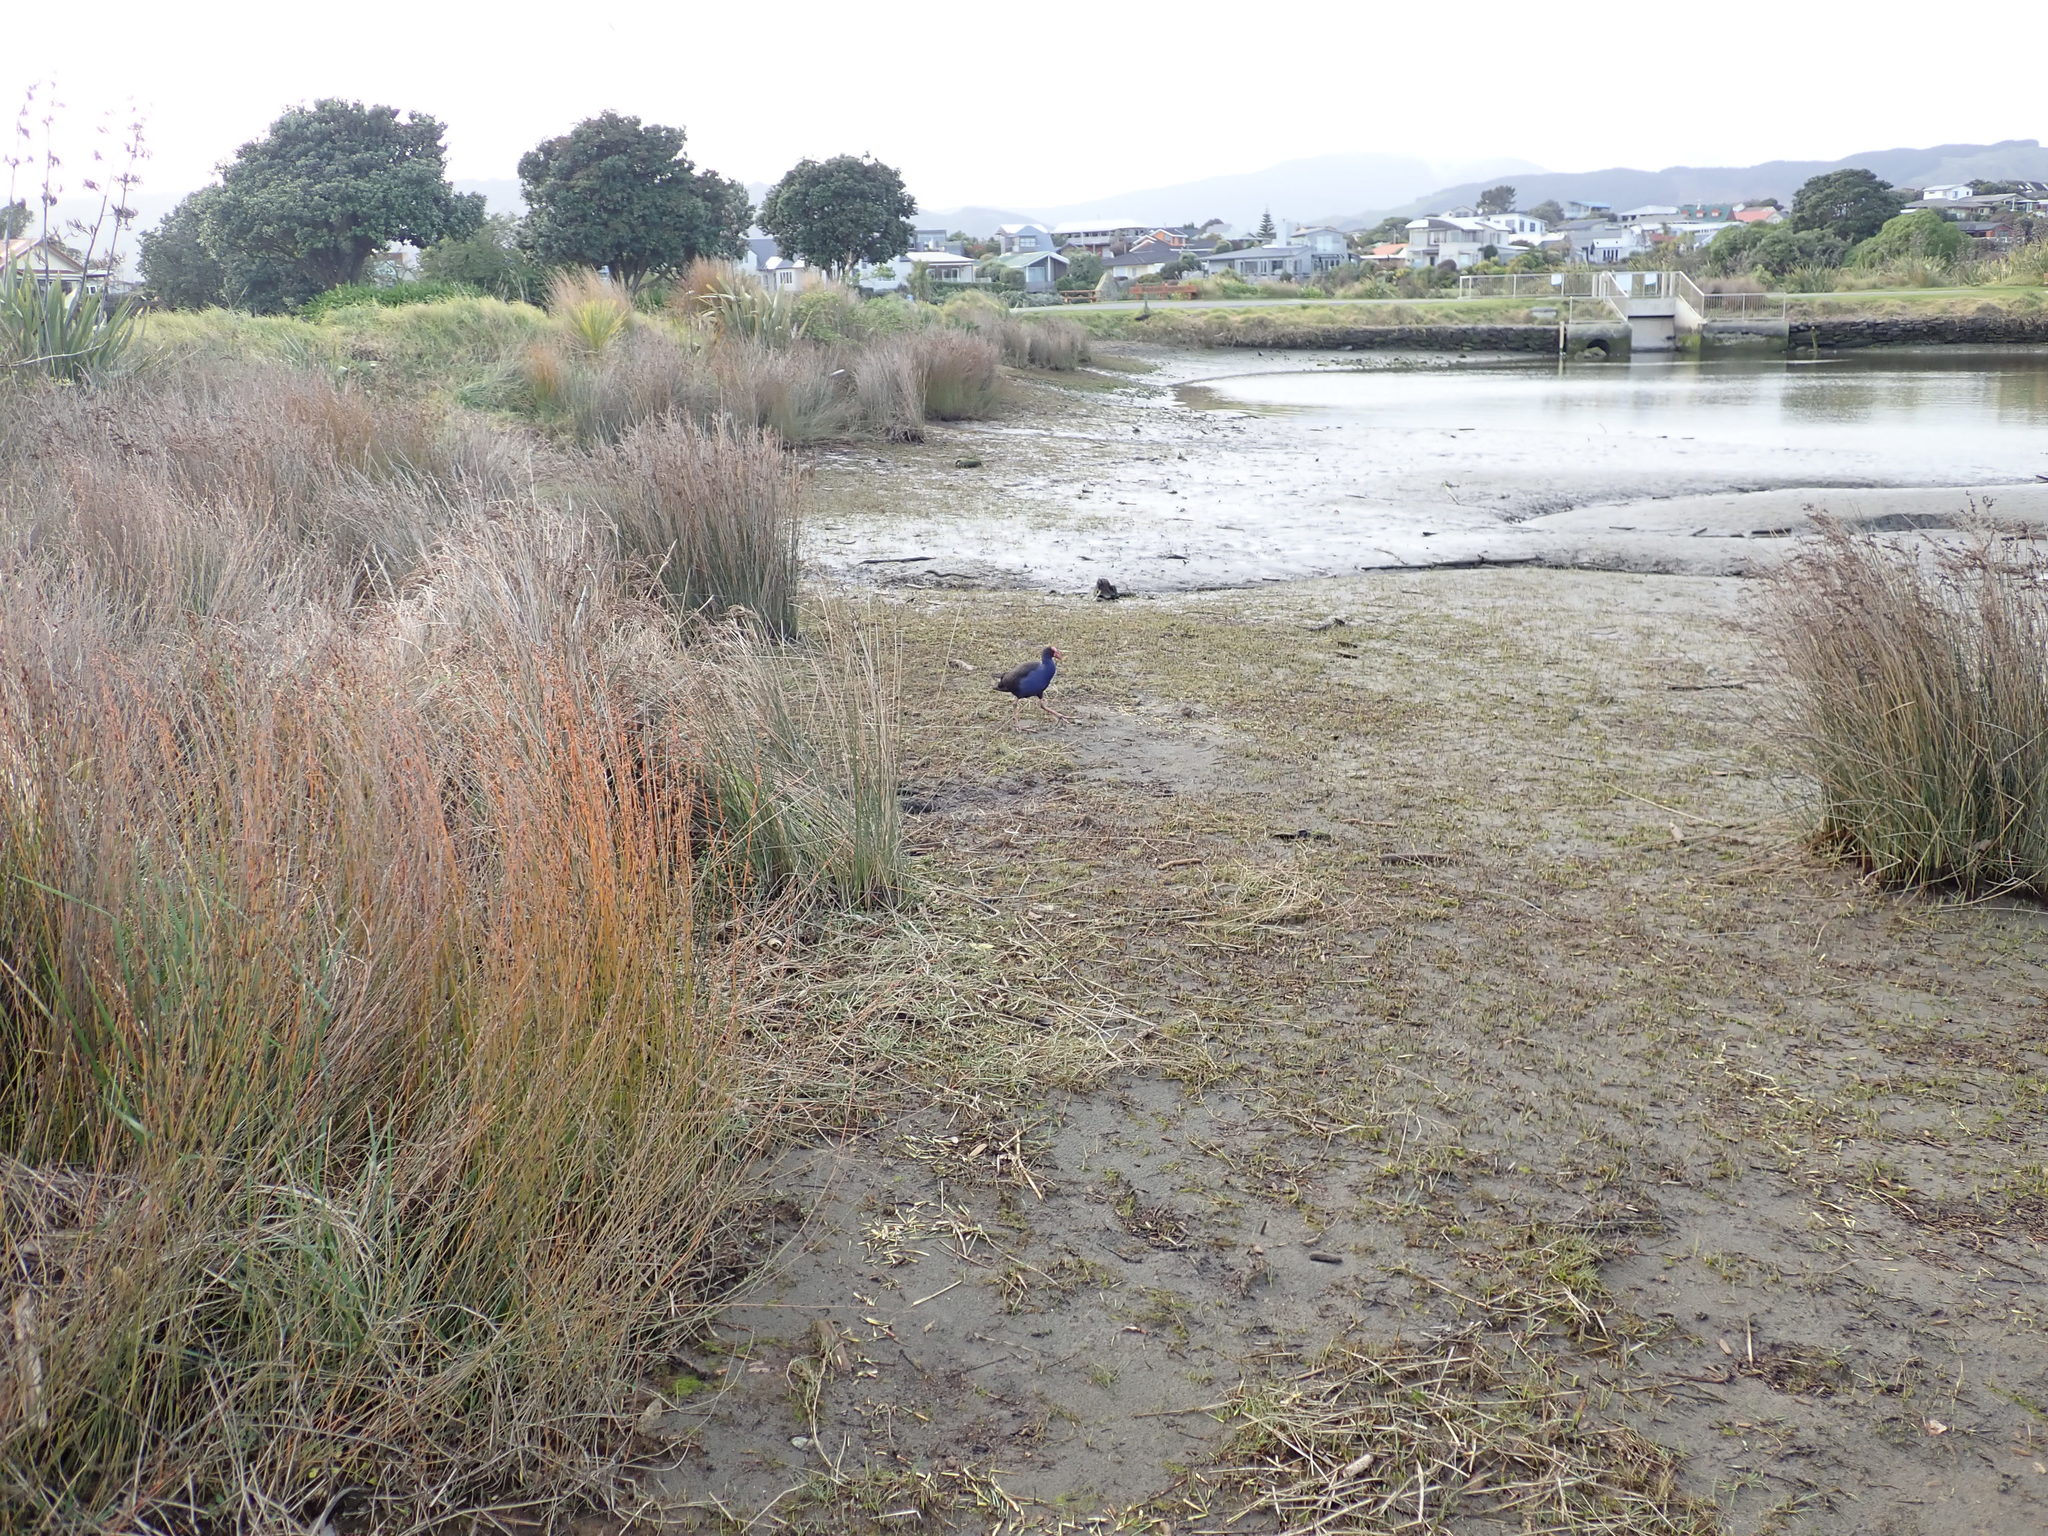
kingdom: Animalia
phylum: Chordata
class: Aves
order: Gruiformes
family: Rallidae
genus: Porphyrio
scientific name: Porphyrio melanotus
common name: Australasian swamphen
